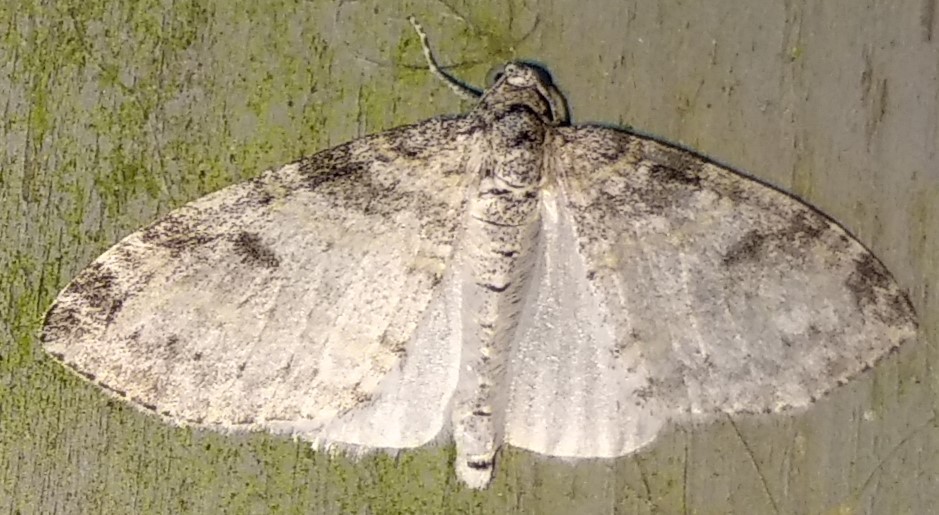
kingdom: Animalia
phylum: Arthropoda
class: Insecta
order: Lepidoptera
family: Geometridae
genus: Lobophora
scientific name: Lobophora nivigerata
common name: Powdered bigwing
